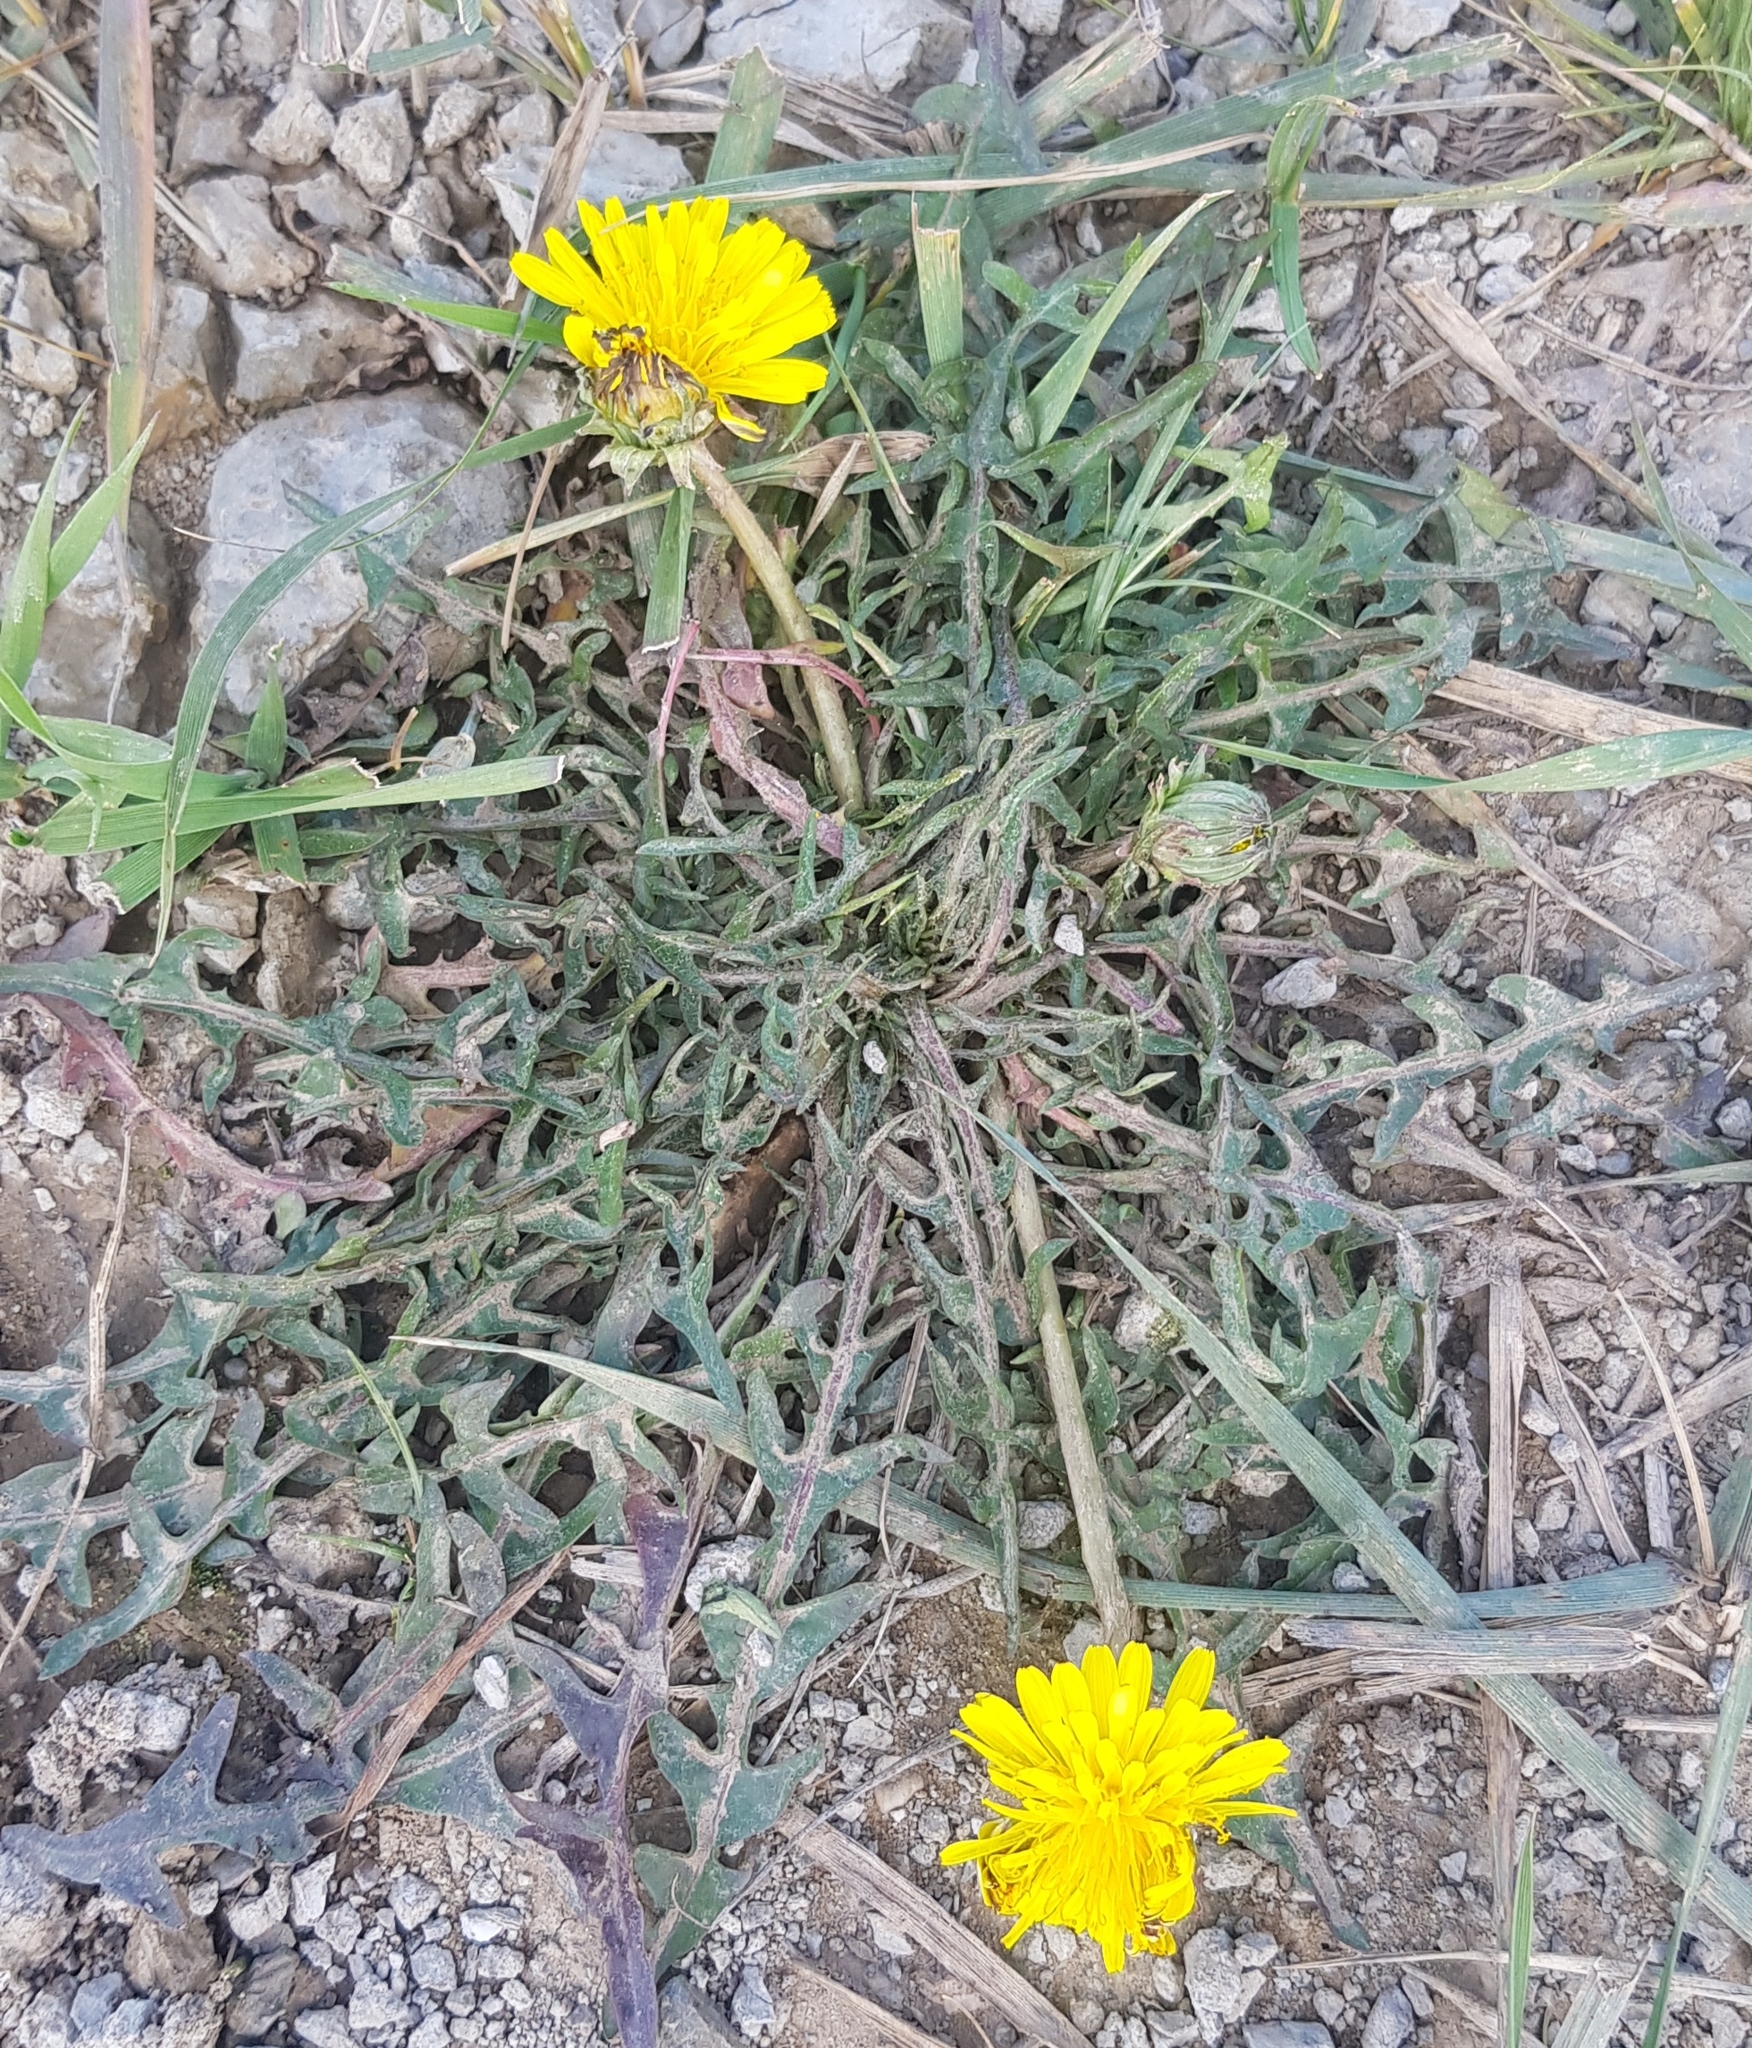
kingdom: Plantae
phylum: Tracheophyta
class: Magnoliopsida
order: Asterales
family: Asteraceae
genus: Taraxacum
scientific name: Taraxacum officinale
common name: Common dandelion
